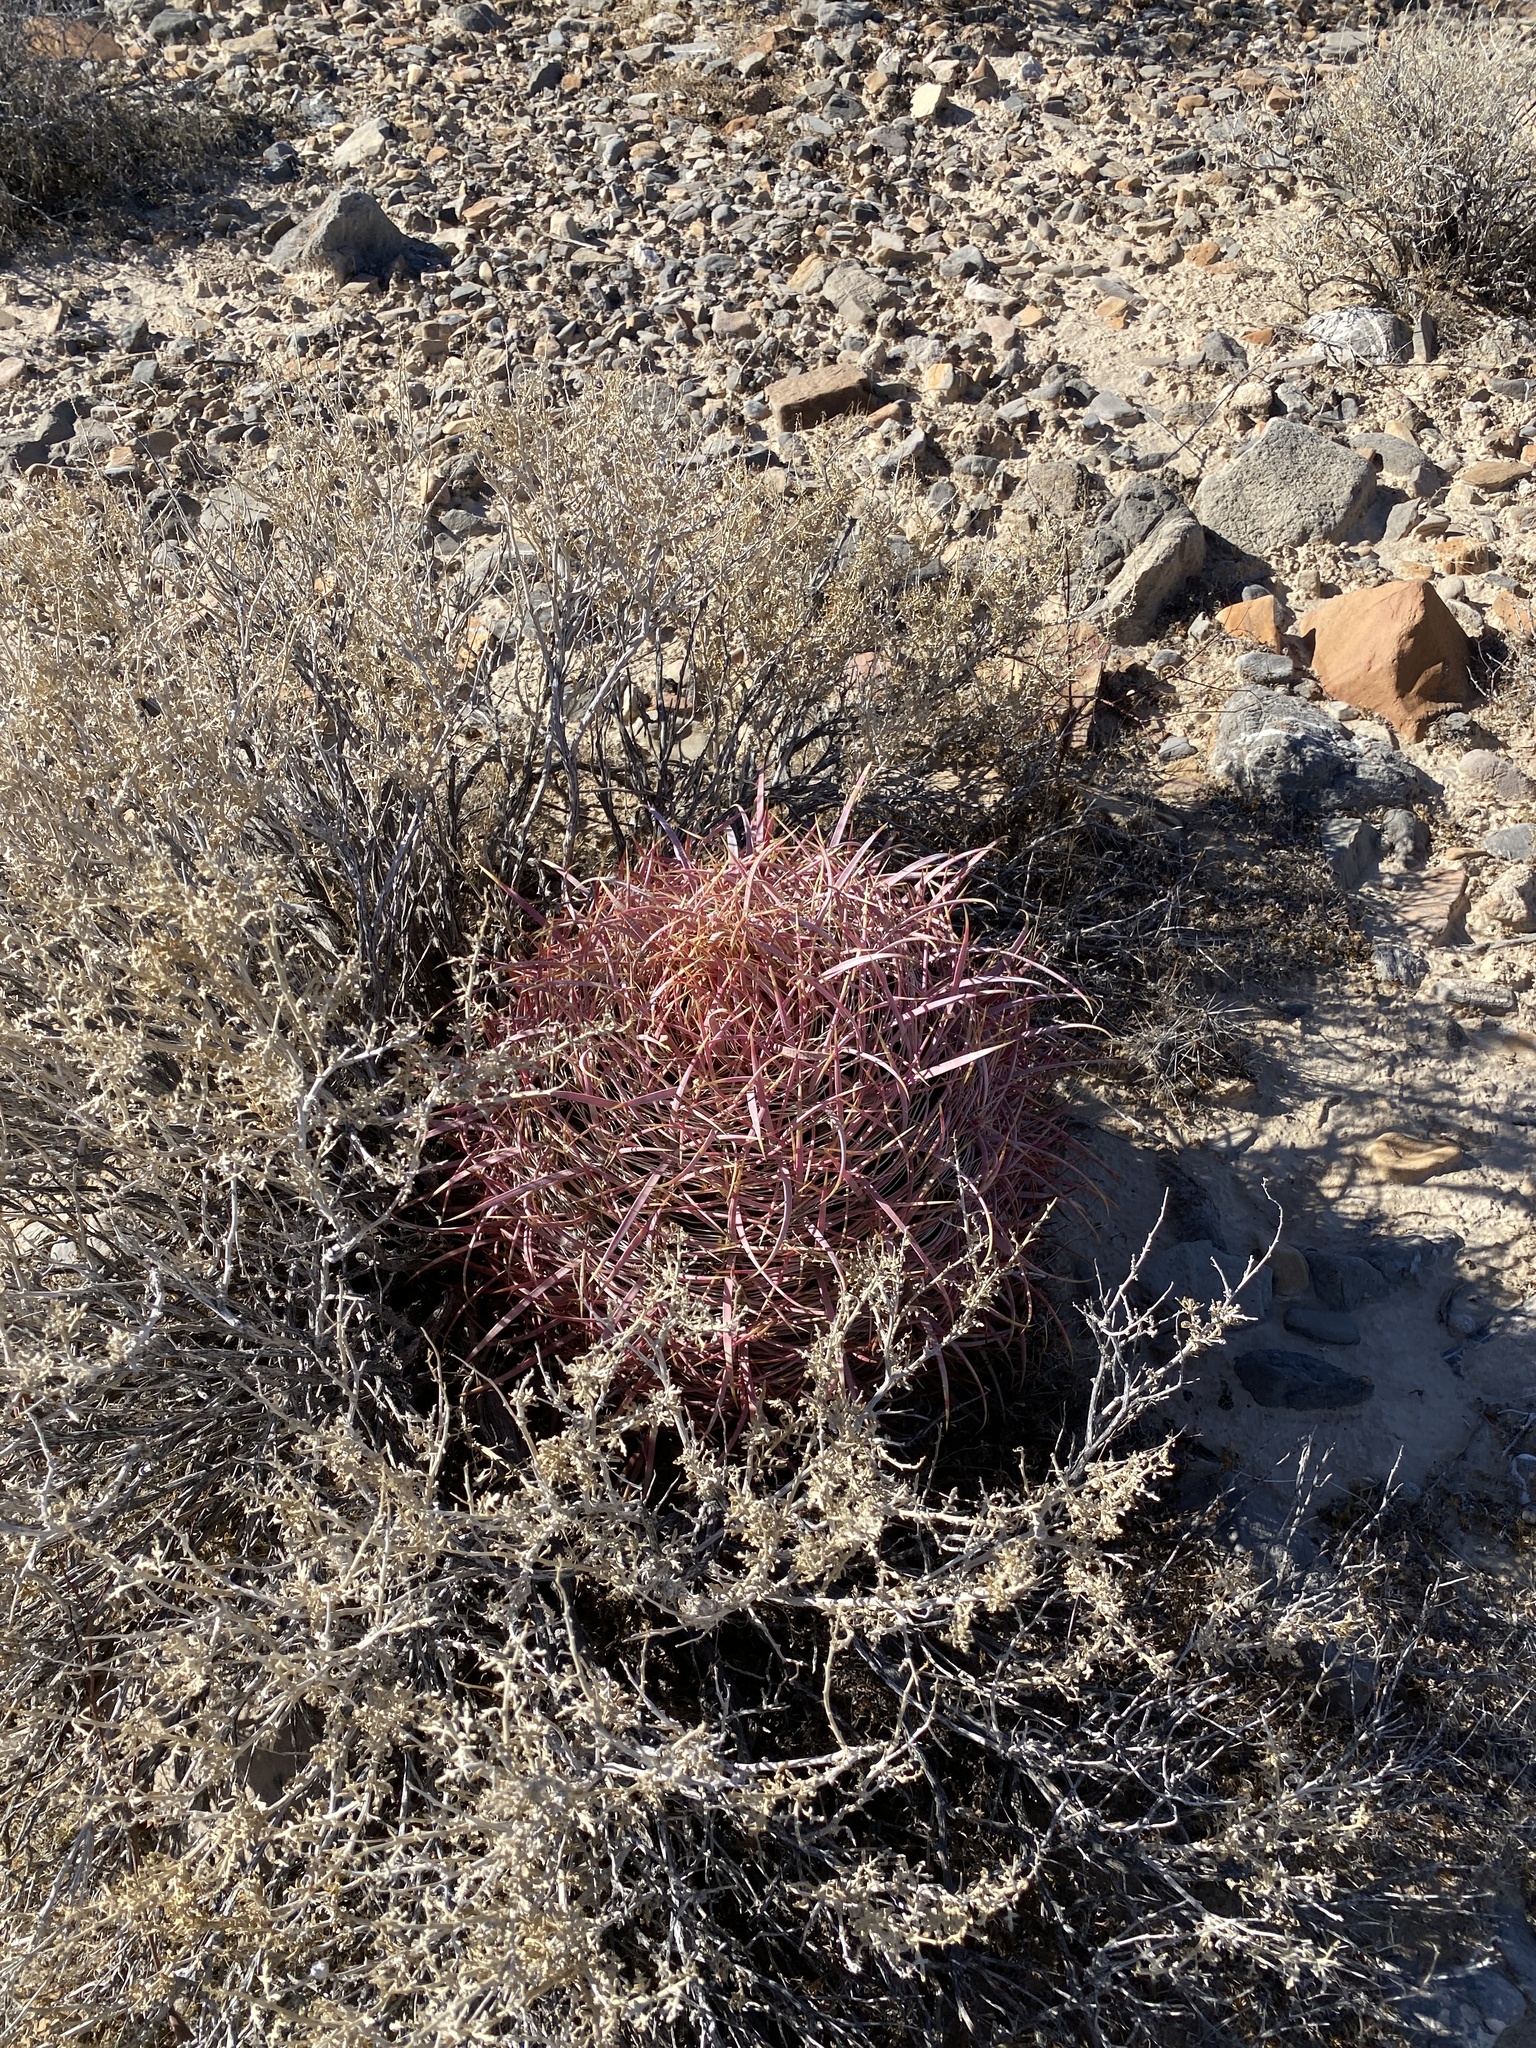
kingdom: Plantae
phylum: Tracheophyta
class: Magnoliopsida
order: Caryophyllales
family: Cactaceae
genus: Ferocactus
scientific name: Ferocactus cylindraceus
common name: California barrel cactus
